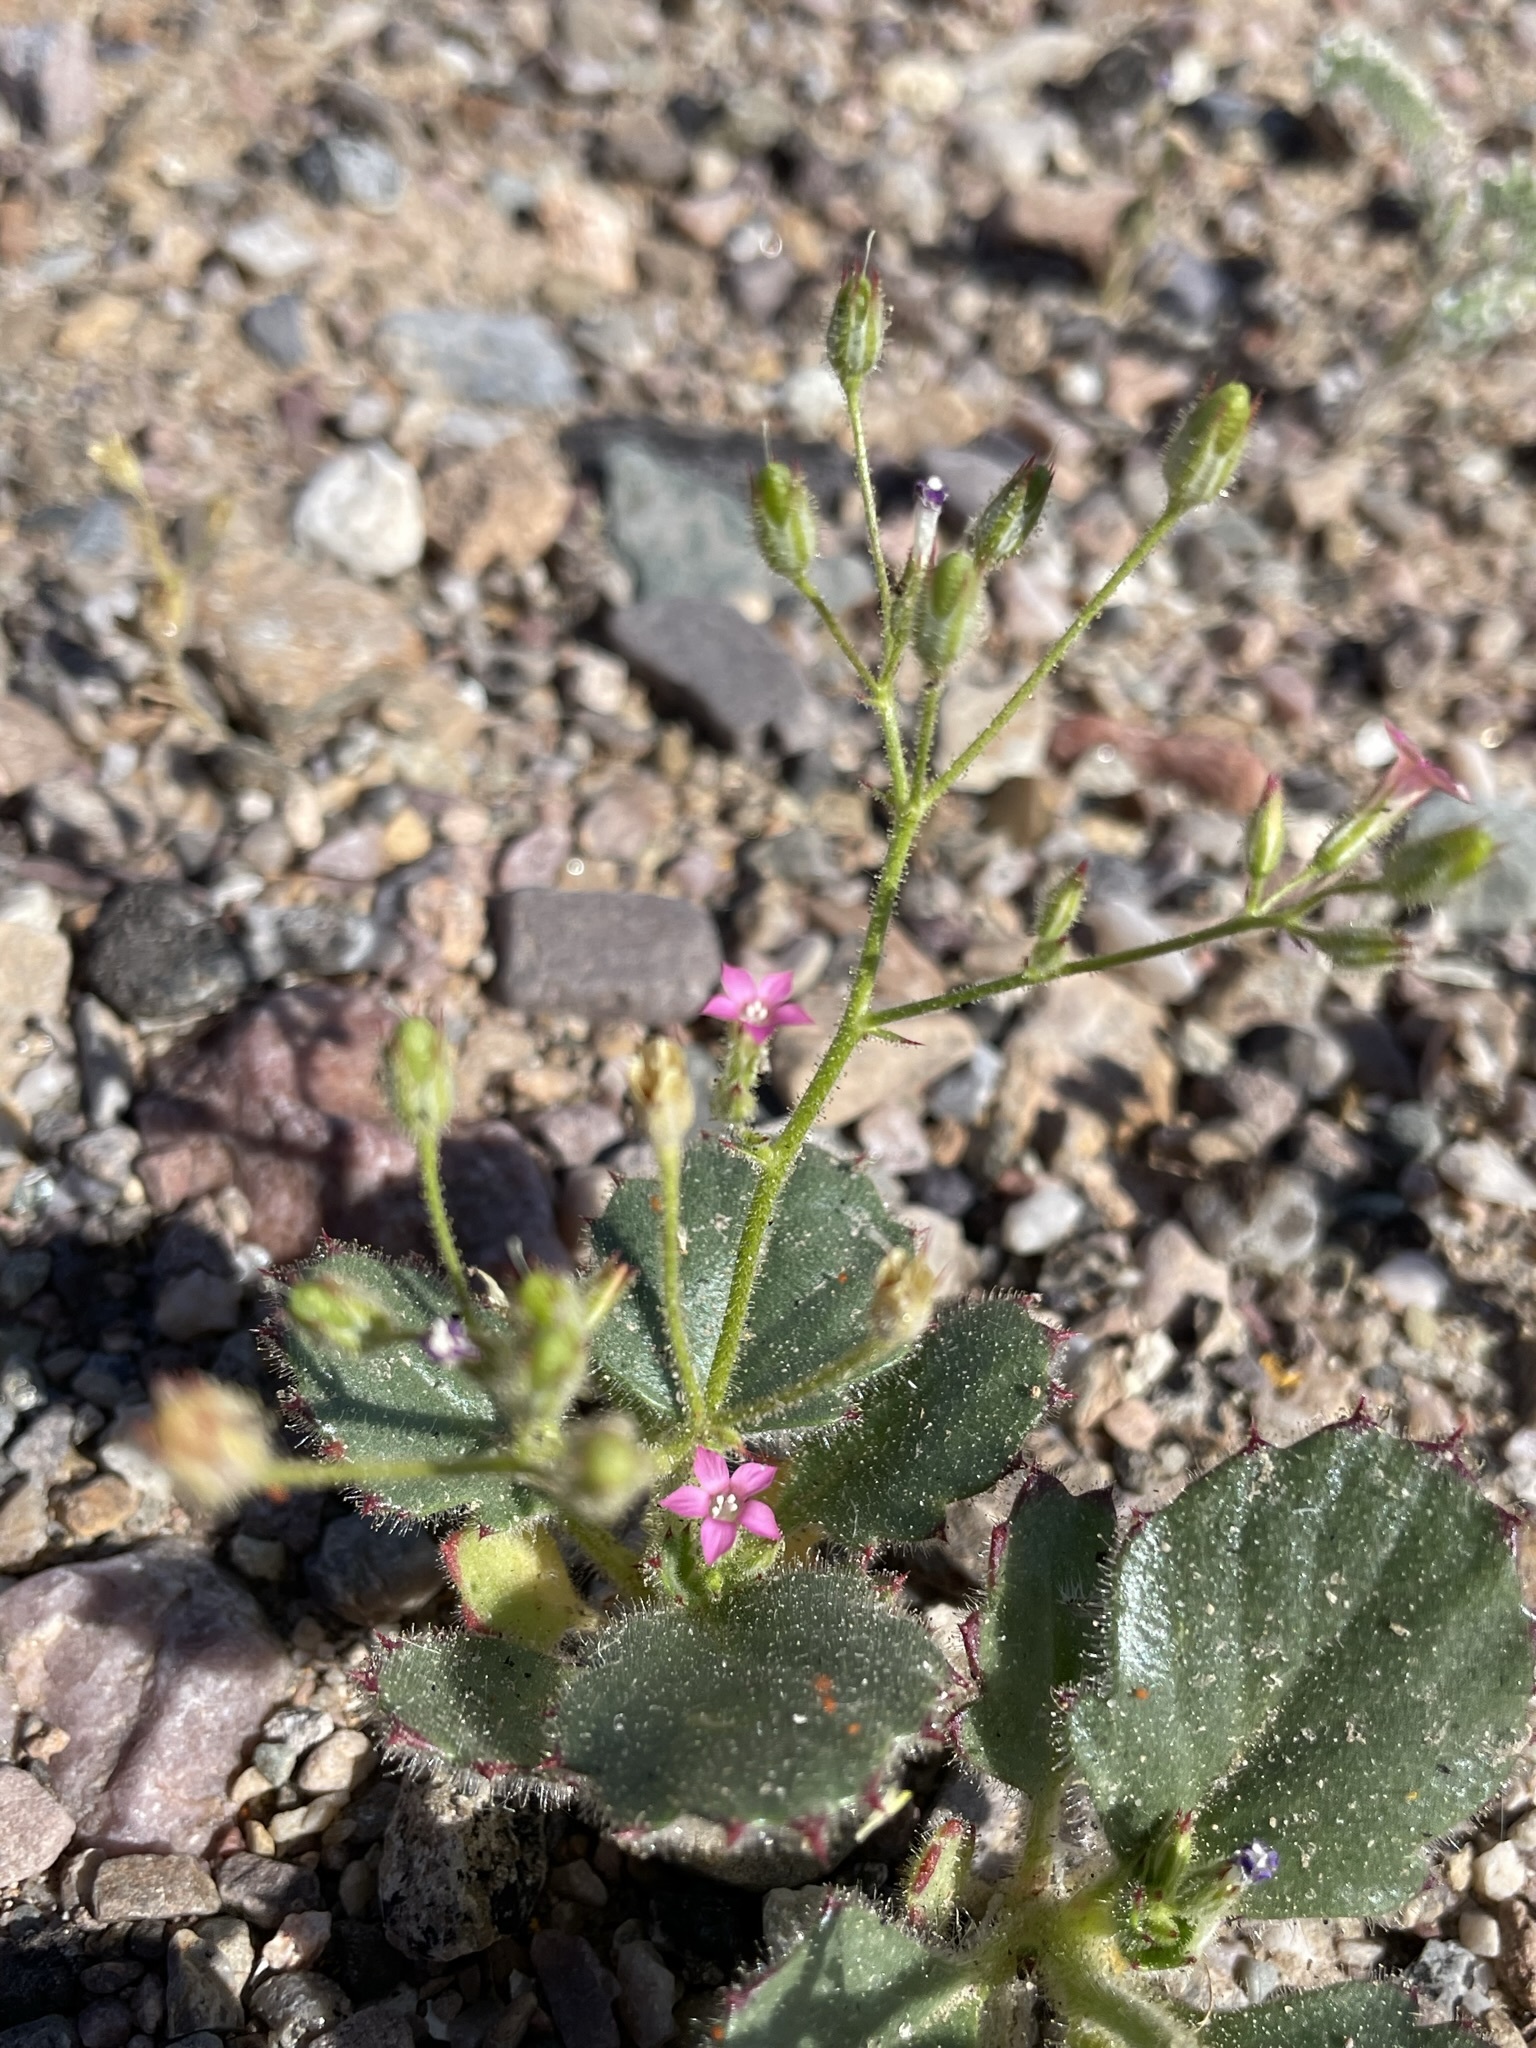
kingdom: Plantae
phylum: Tracheophyta
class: Magnoliopsida
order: Ericales
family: Polemoniaceae
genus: Aliciella
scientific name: Aliciella latifolia
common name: Broad-leaf gilia
